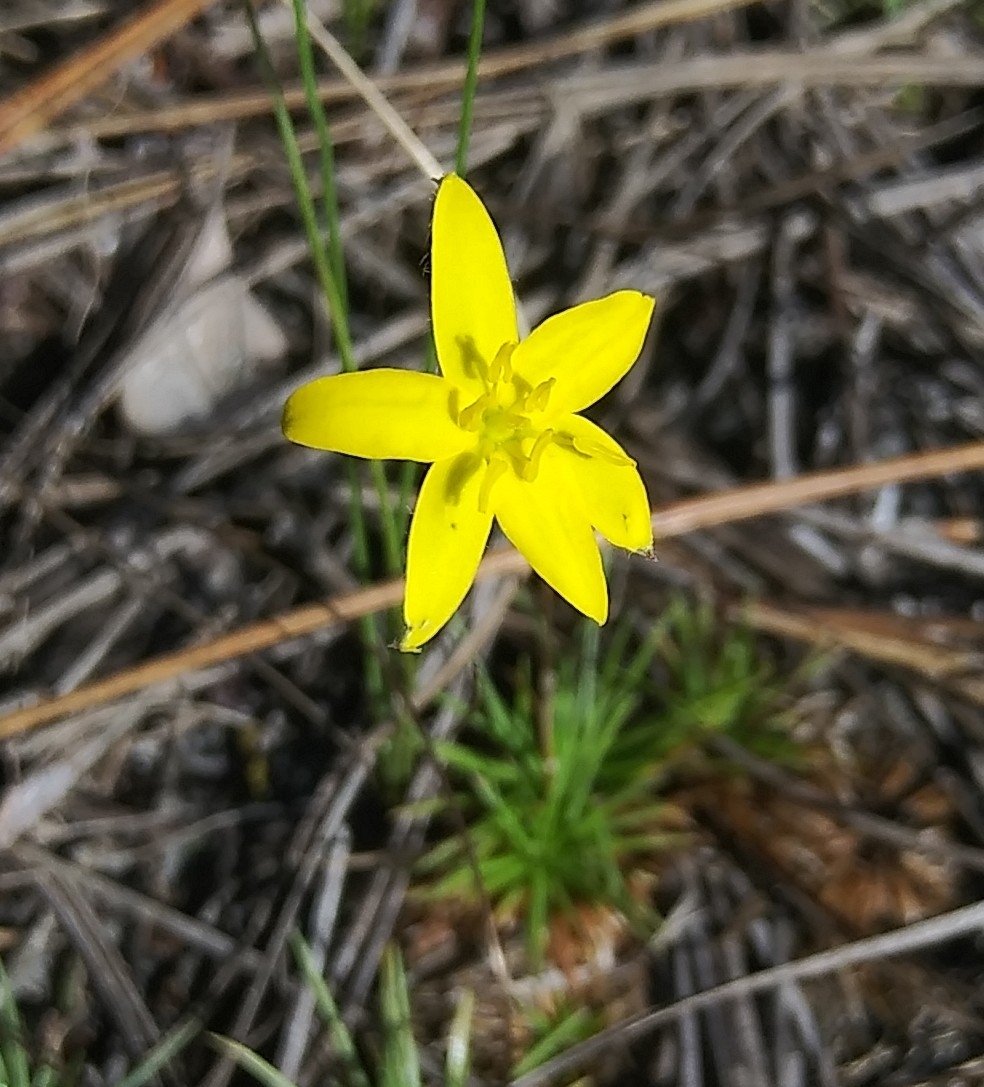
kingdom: Plantae
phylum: Tracheophyta
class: Liliopsida
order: Asparagales
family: Hypoxidaceae
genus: Hypoxis
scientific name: Hypoxis juncea
